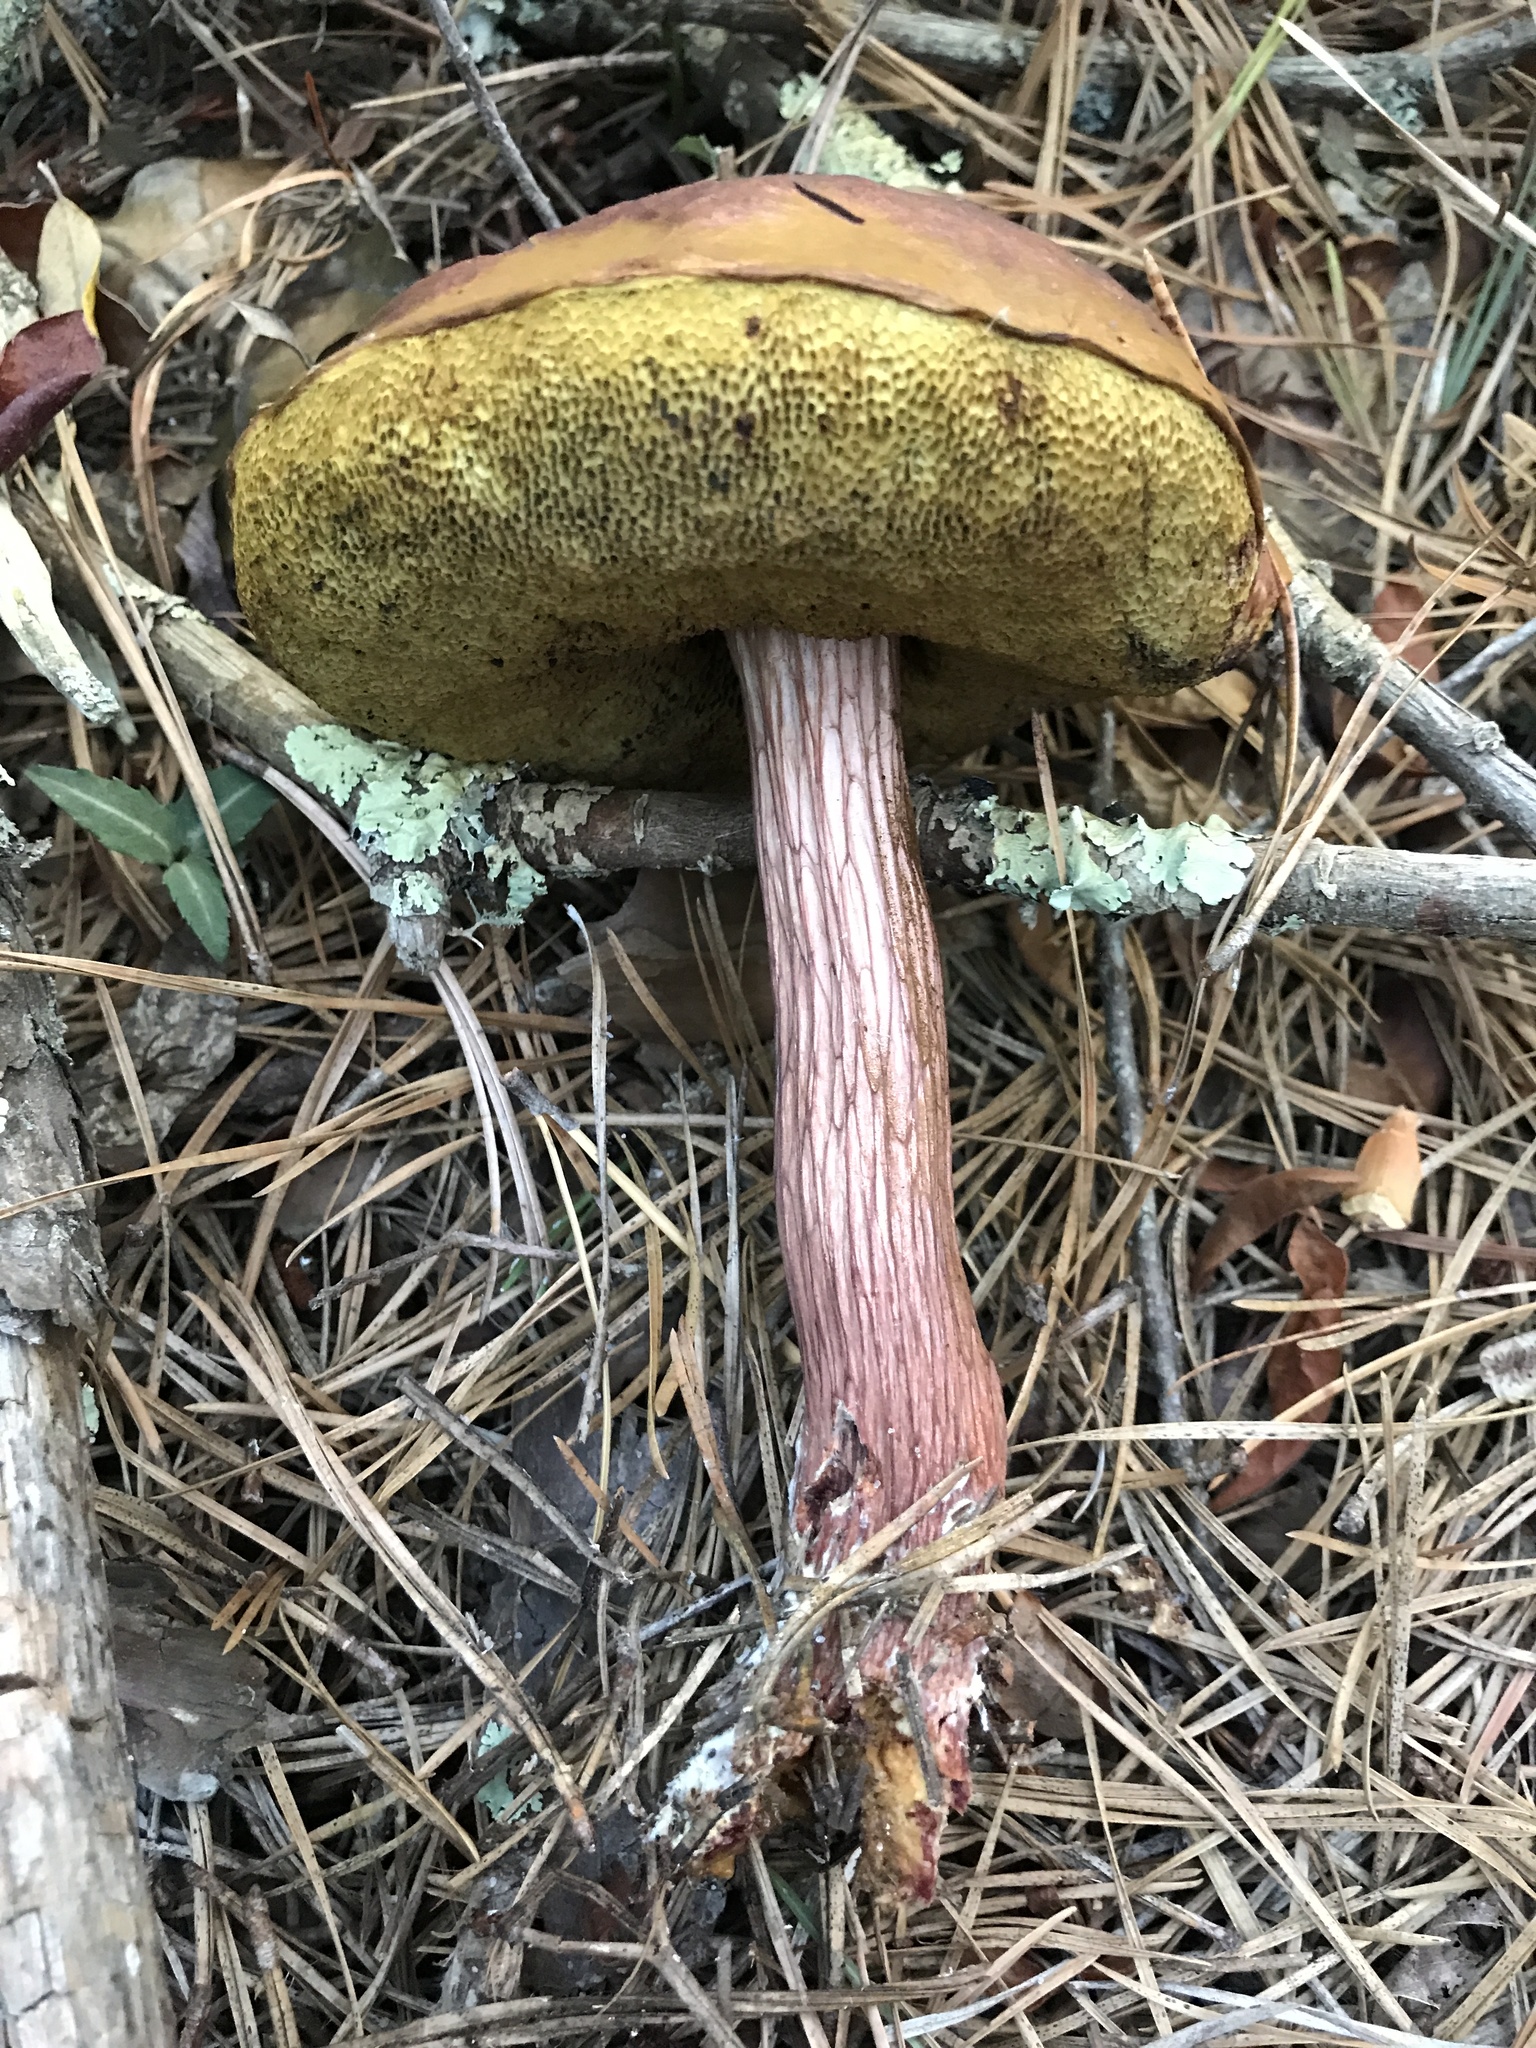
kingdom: Fungi
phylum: Basidiomycota
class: Agaricomycetes
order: Boletales
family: Boletaceae
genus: Aureoboletus
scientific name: Aureoboletus projectellus
